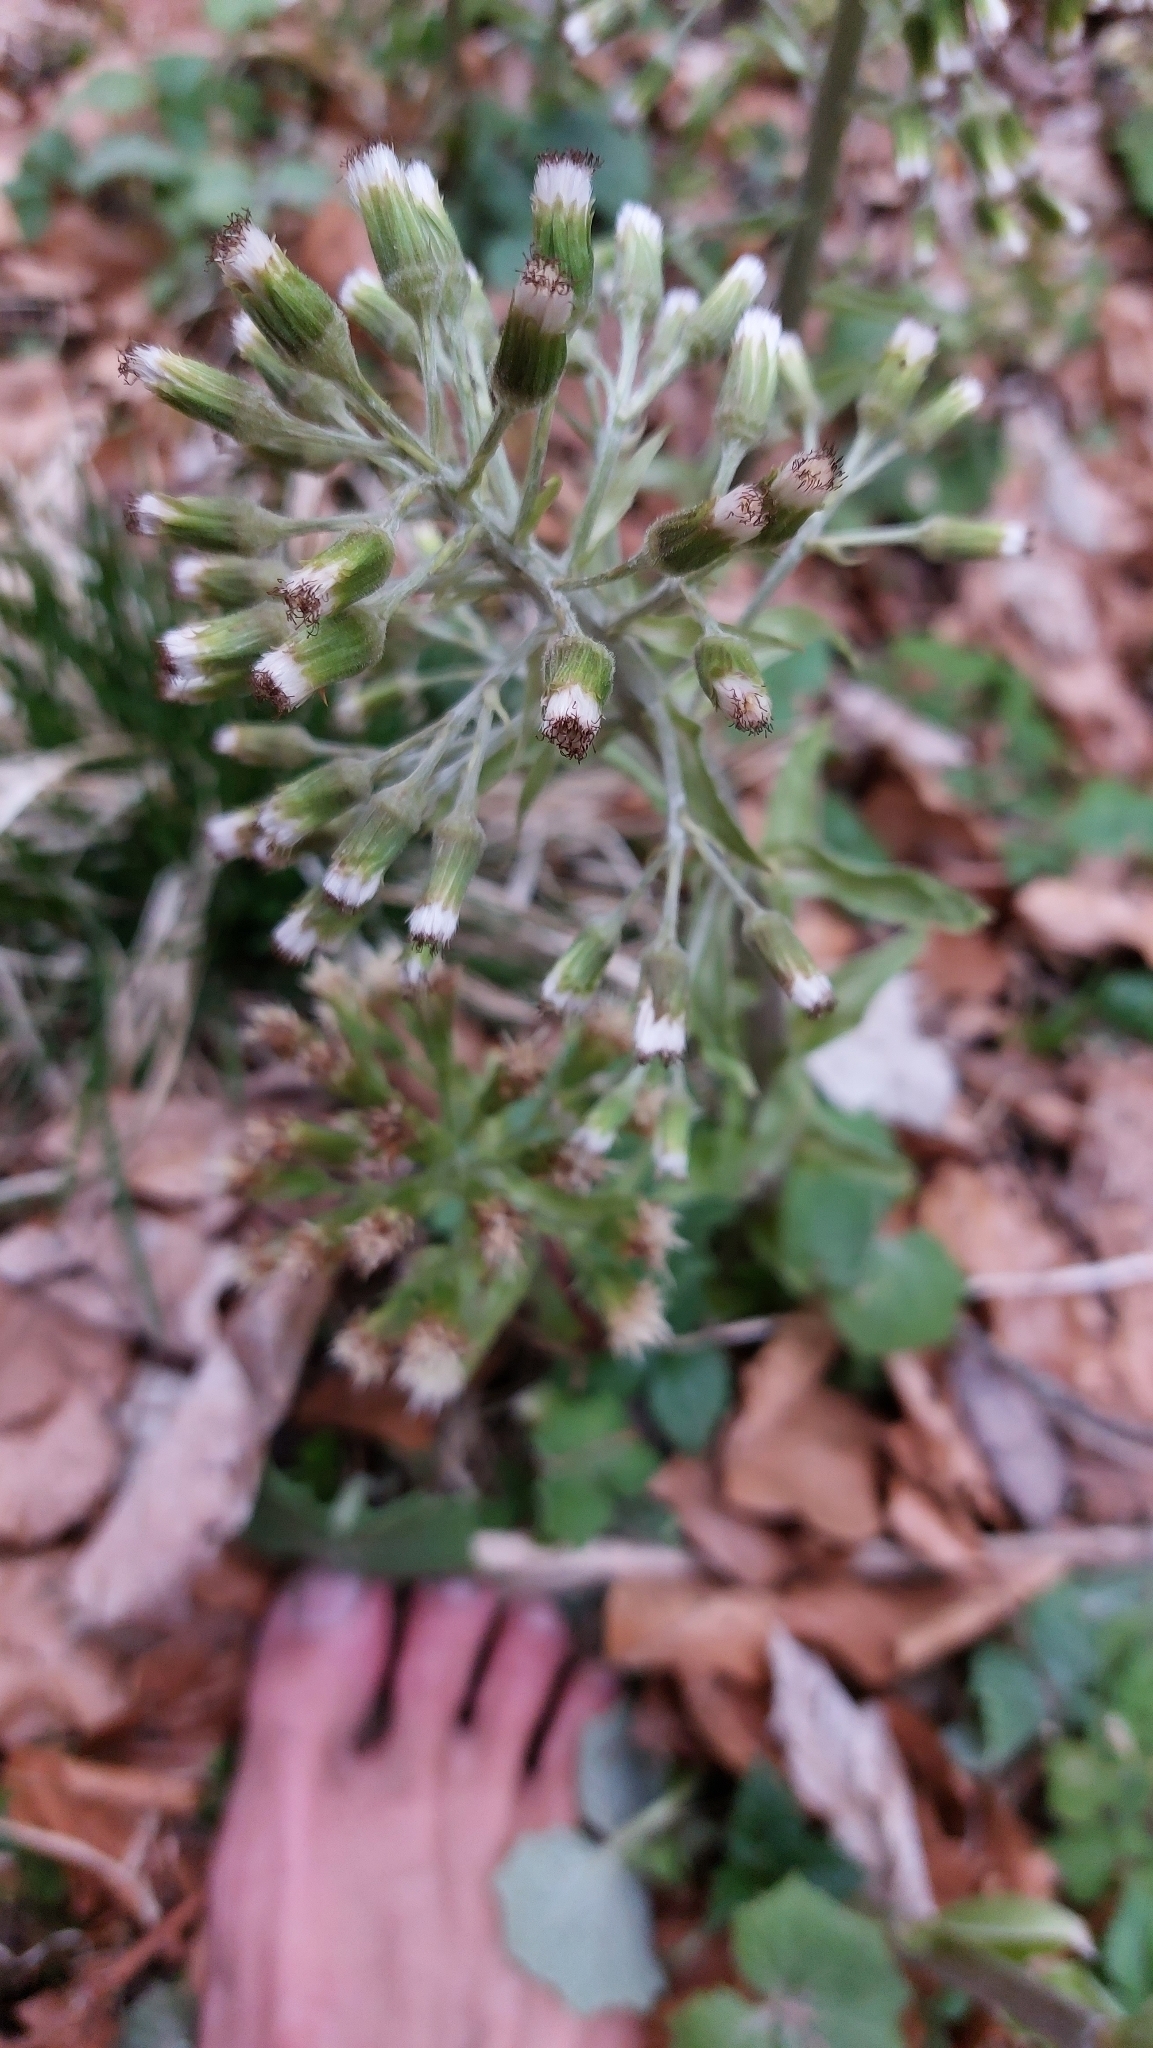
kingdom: Plantae
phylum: Tracheophyta
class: Magnoliopsida
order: Asterales
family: Asteraceae
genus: Petasites
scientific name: Petasites albus
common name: White butterbur
